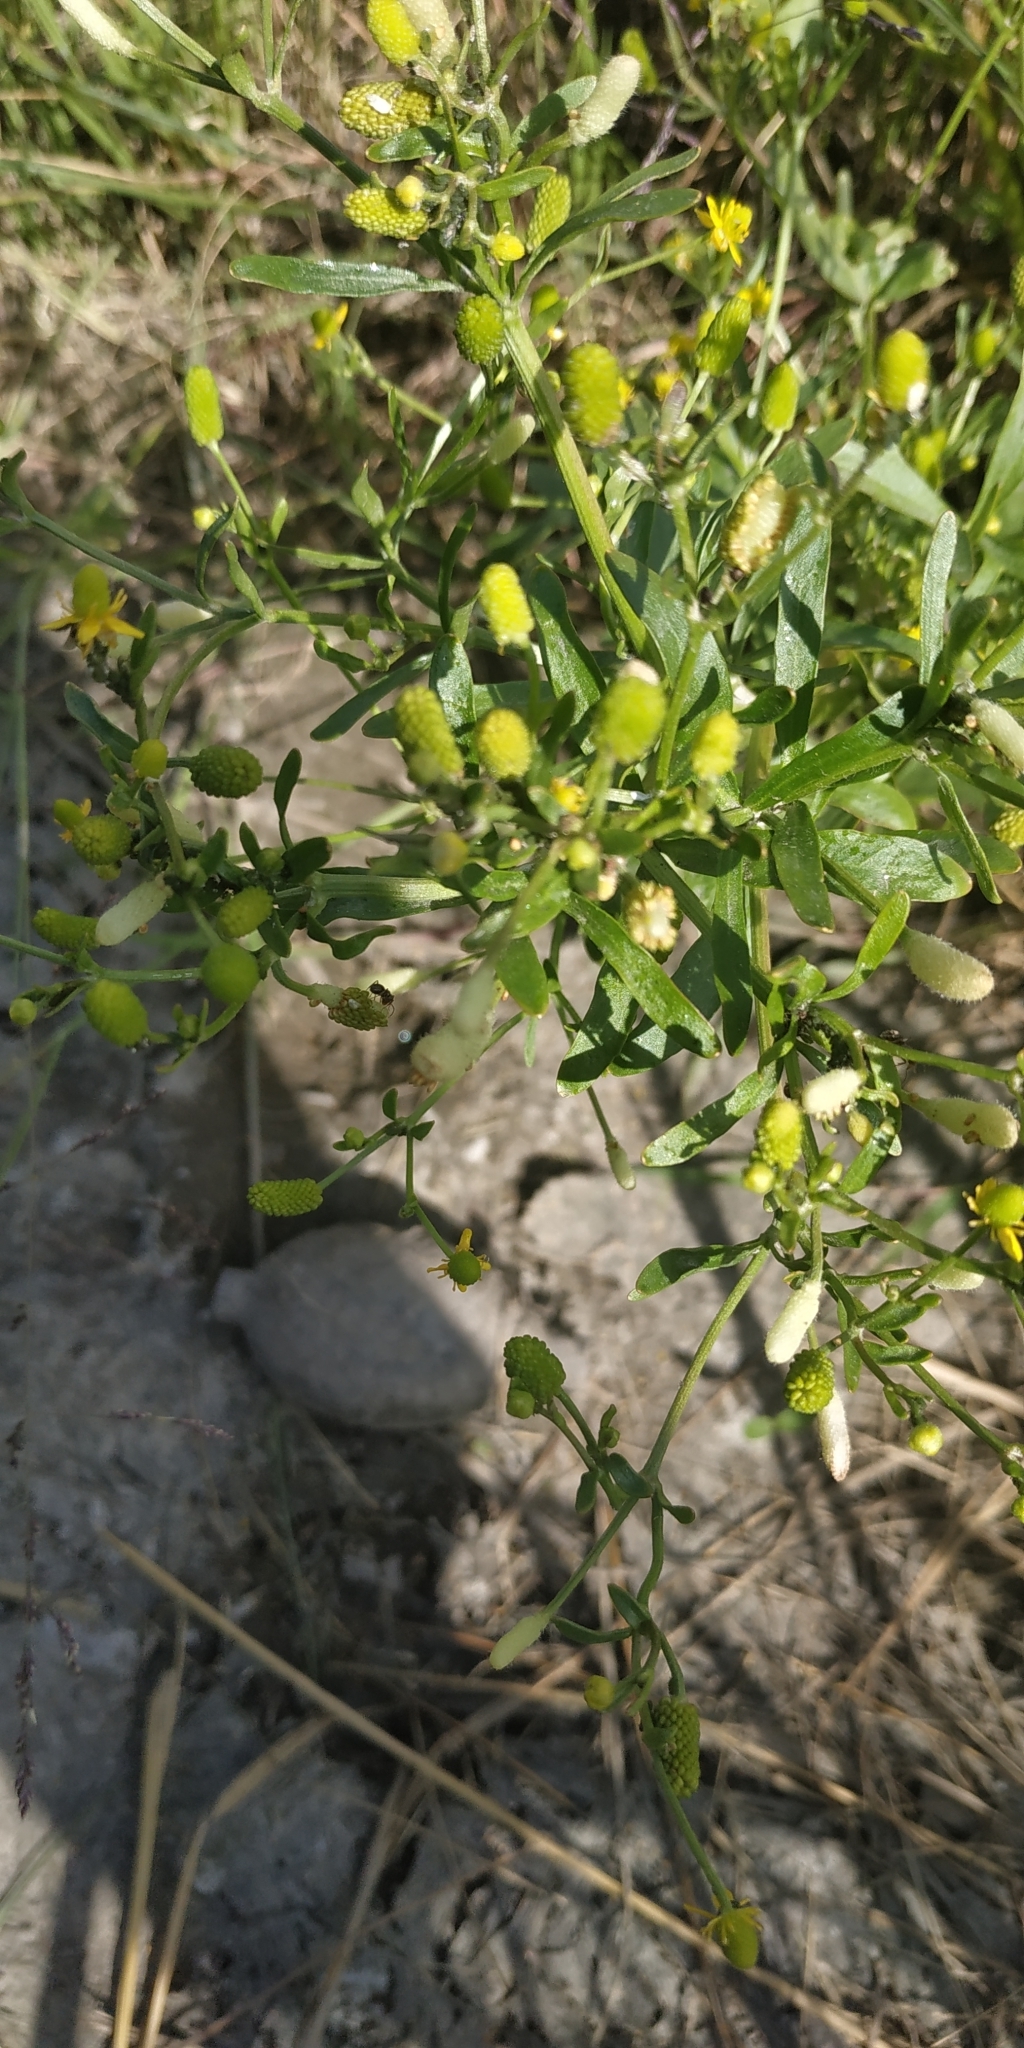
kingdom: Plantae
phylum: Tracheophyta
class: Magnoliopsida
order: Ranunculales
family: Ranunculaceae
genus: Ranunculus
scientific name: Ranunculus sceleratus
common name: Celery-leaved buttercup
